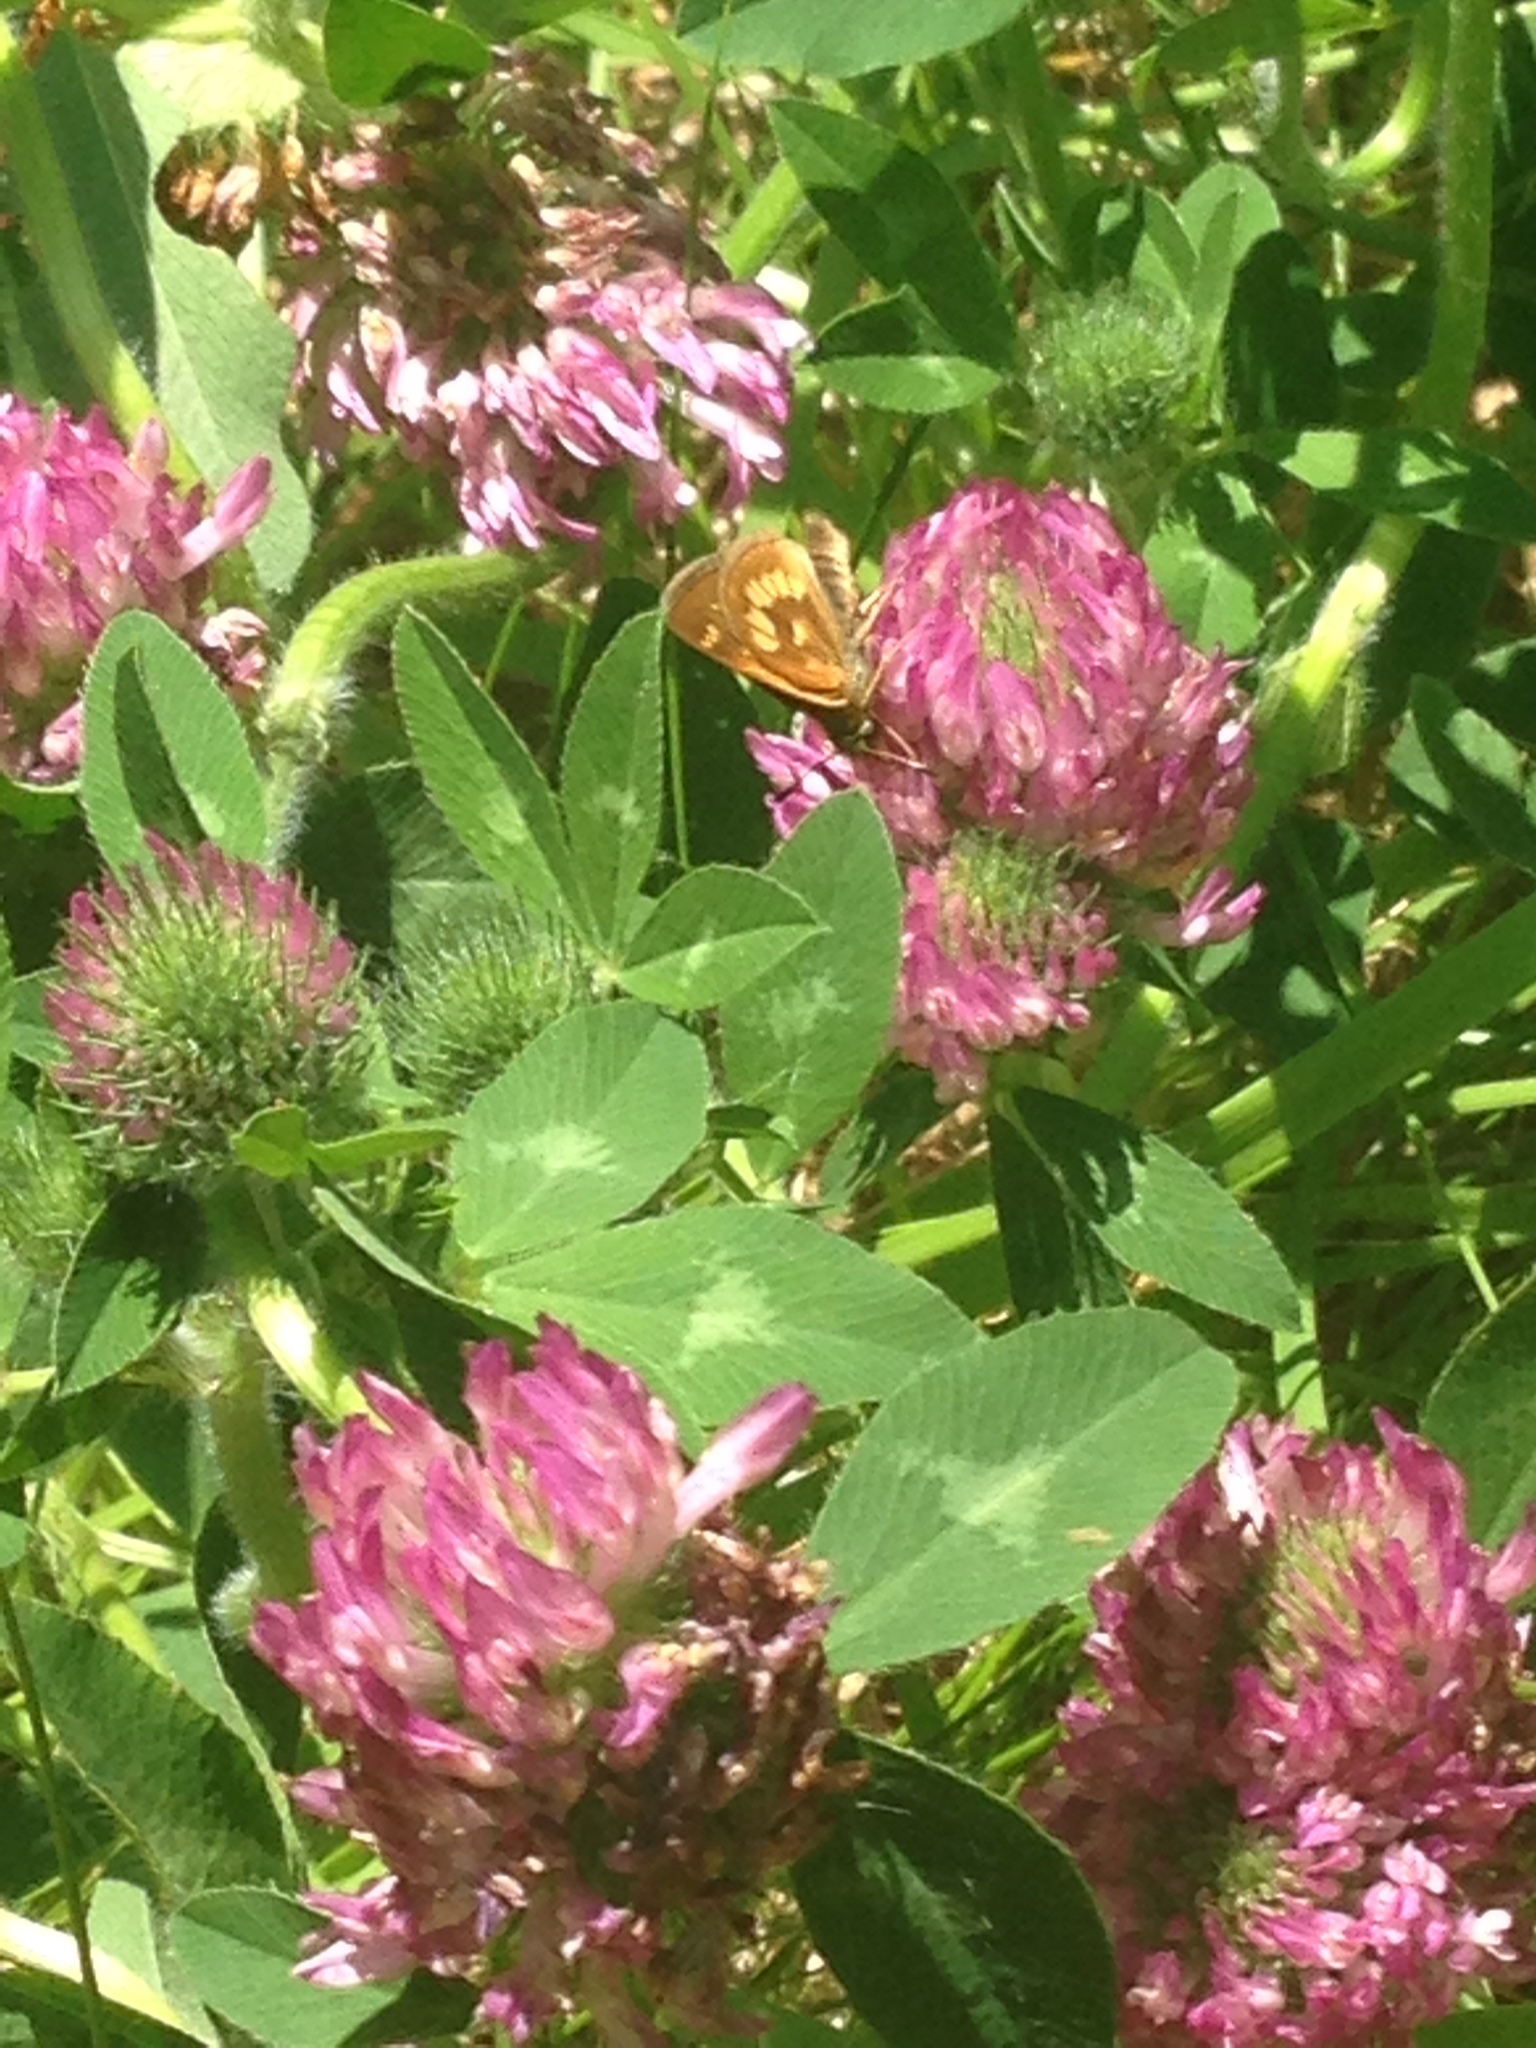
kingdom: Animalia
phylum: Arthropoda
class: Insecta
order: Lepidoptera
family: Hesperiidae
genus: Polites
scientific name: Polites mystic
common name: Long dash
